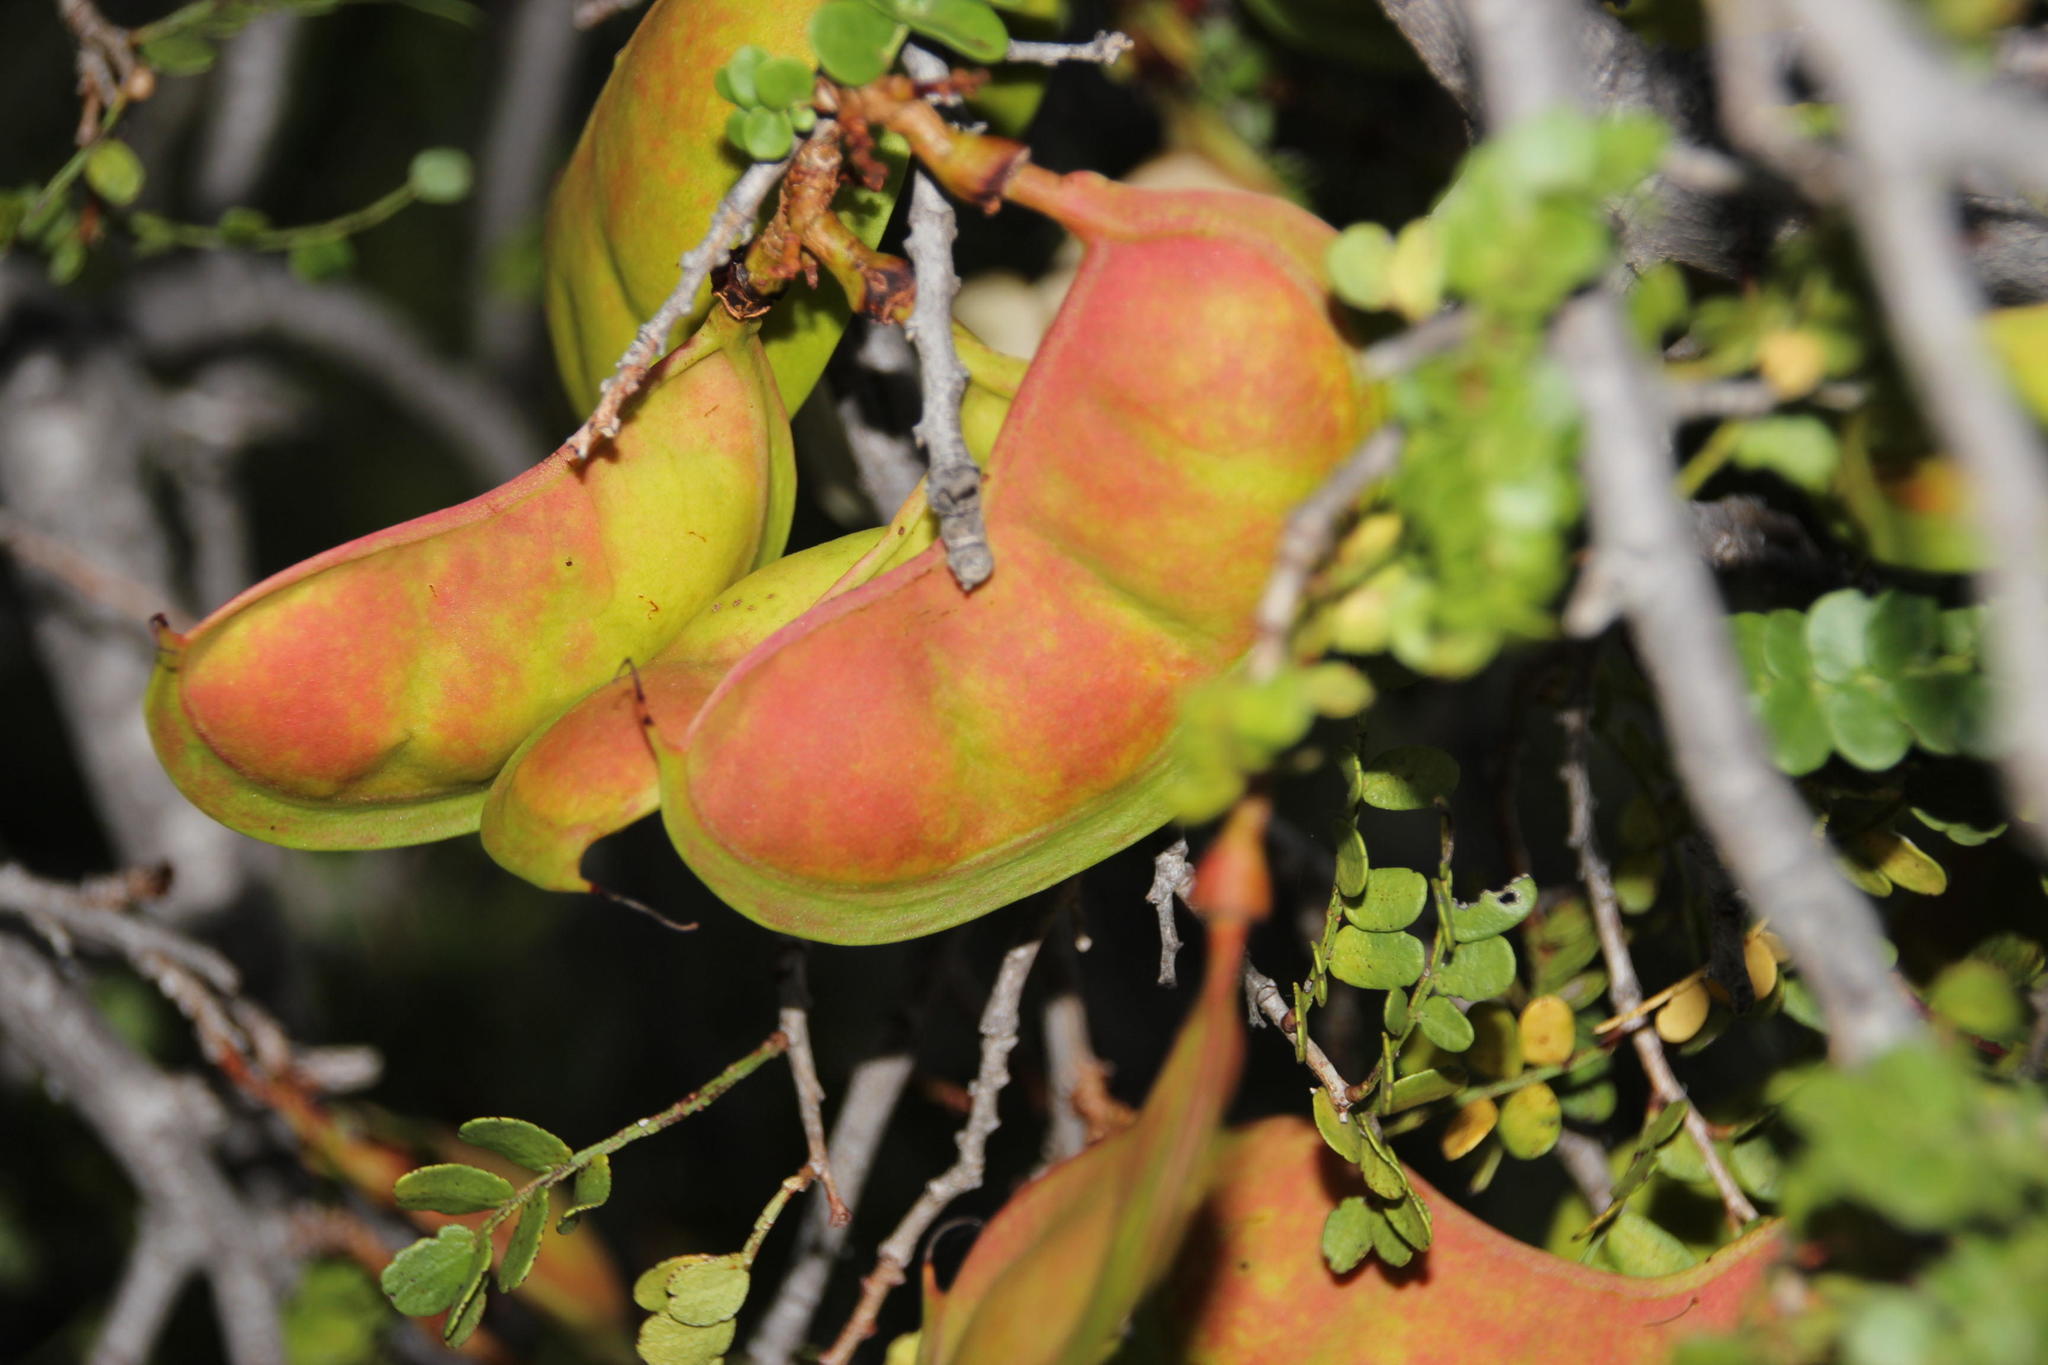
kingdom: Plantae
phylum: Tracheophyta
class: Magnoliopsida
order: Fabales
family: Fabaceae
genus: Schotia
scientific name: Schotia afra
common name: Hottentot's bean
